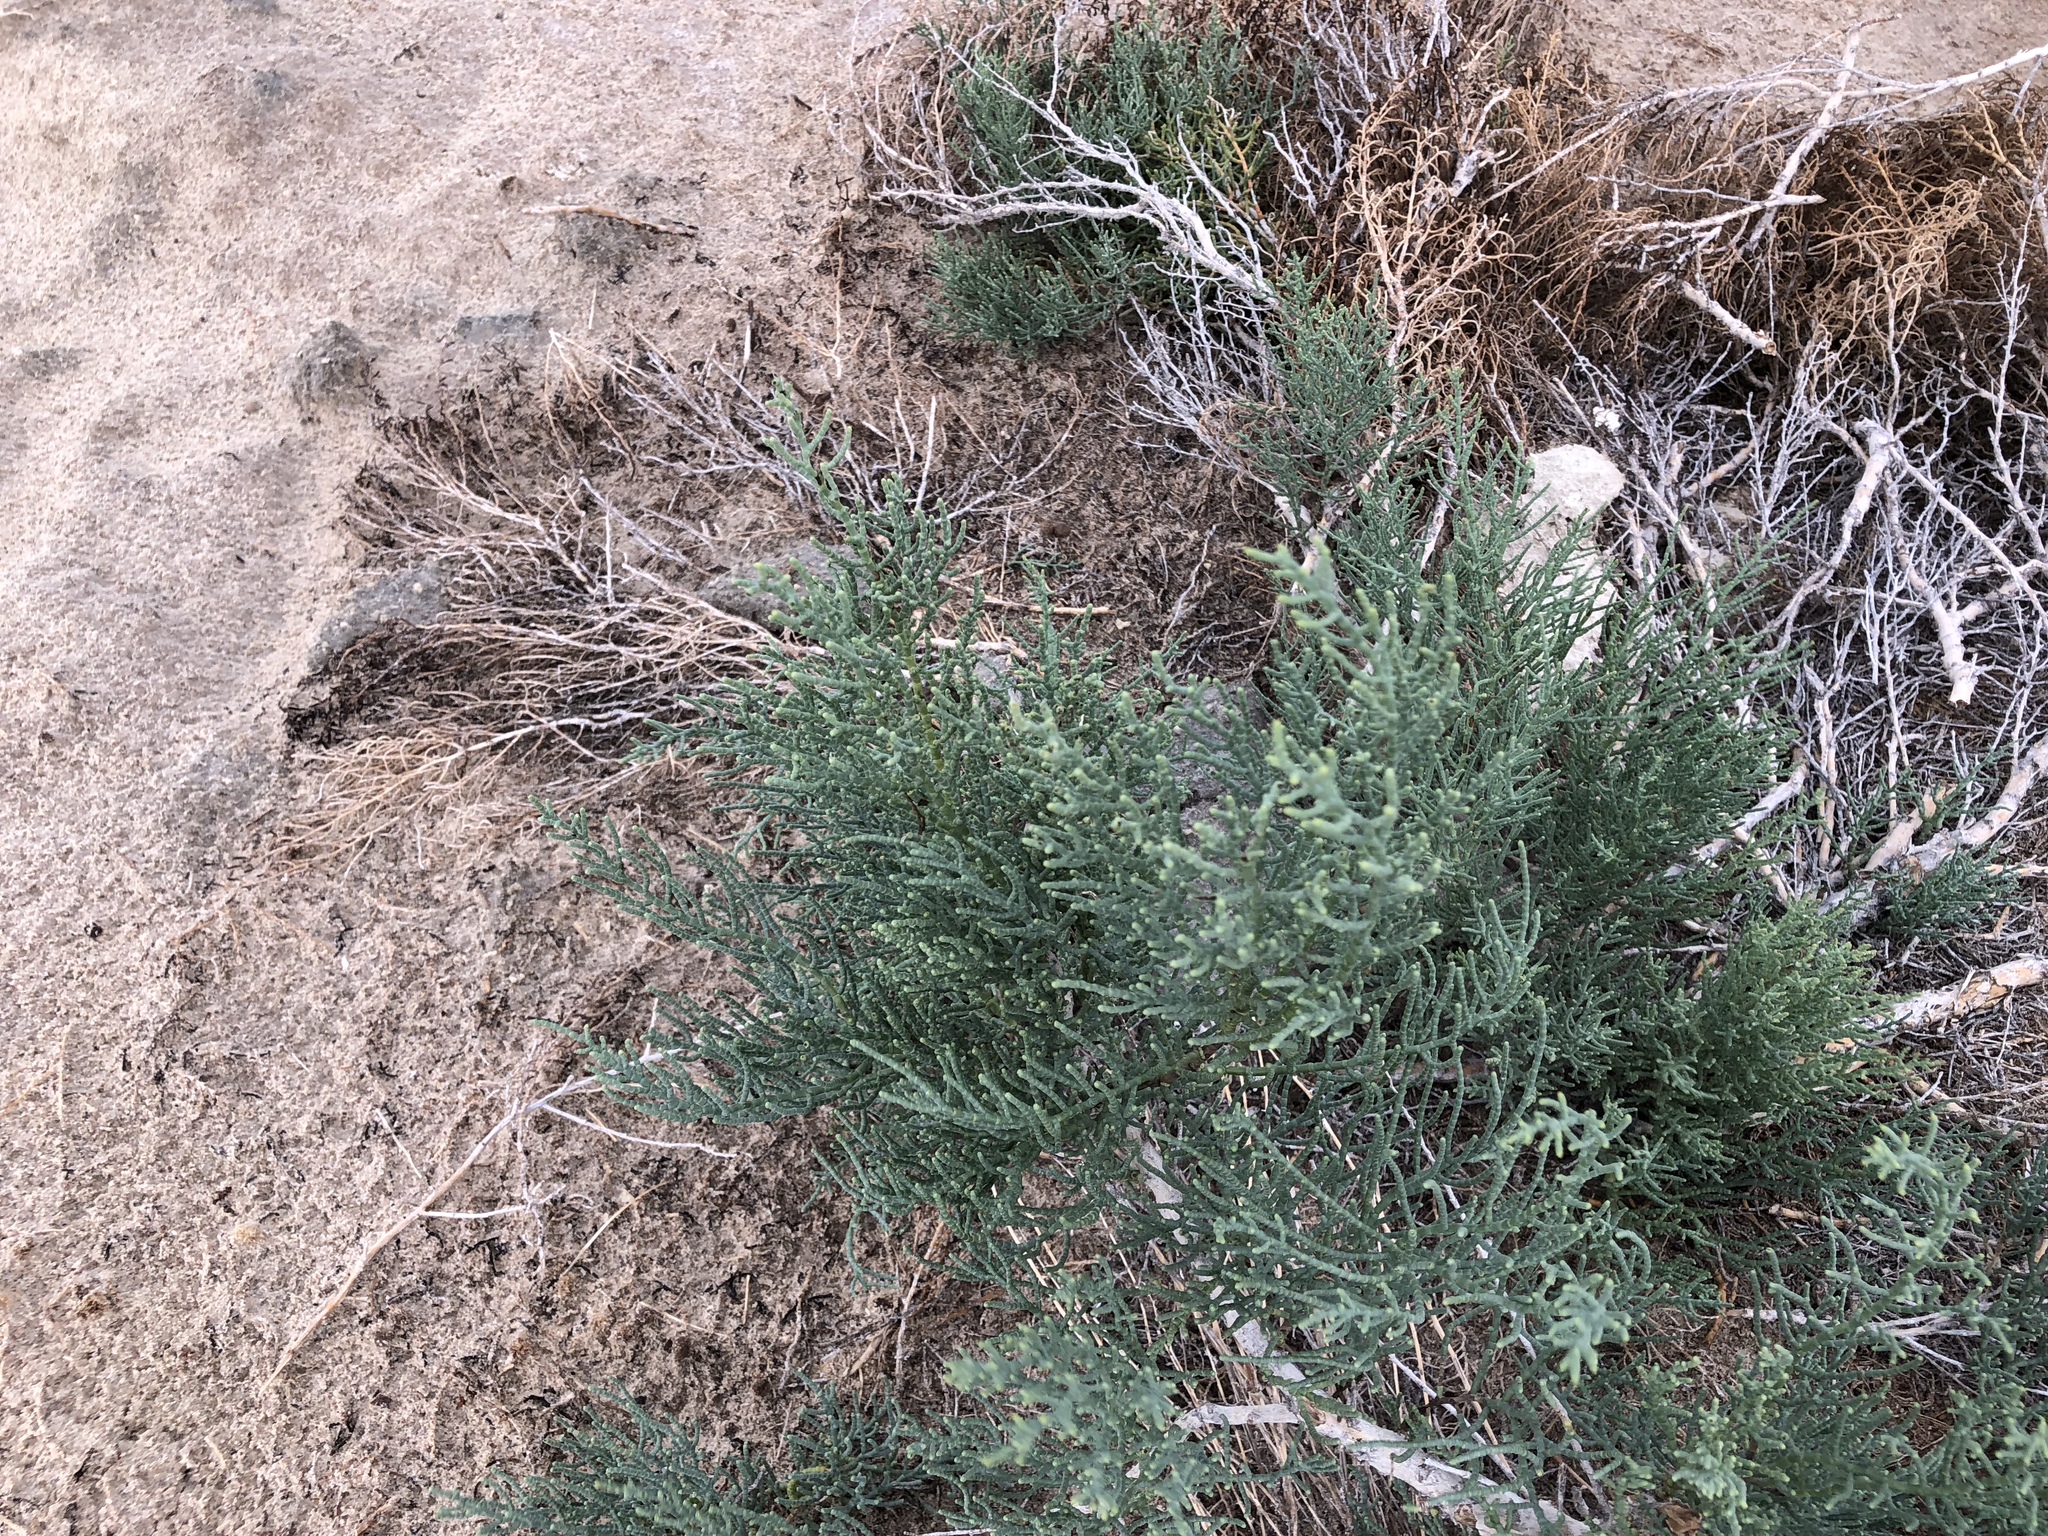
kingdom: Plantae
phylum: Tracheophyta
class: Magnoliopsida
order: Caryophyllales
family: Amaranthaceae
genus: Allenrolfea
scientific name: Allenrolfea occidentalis
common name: Iodine-bush
